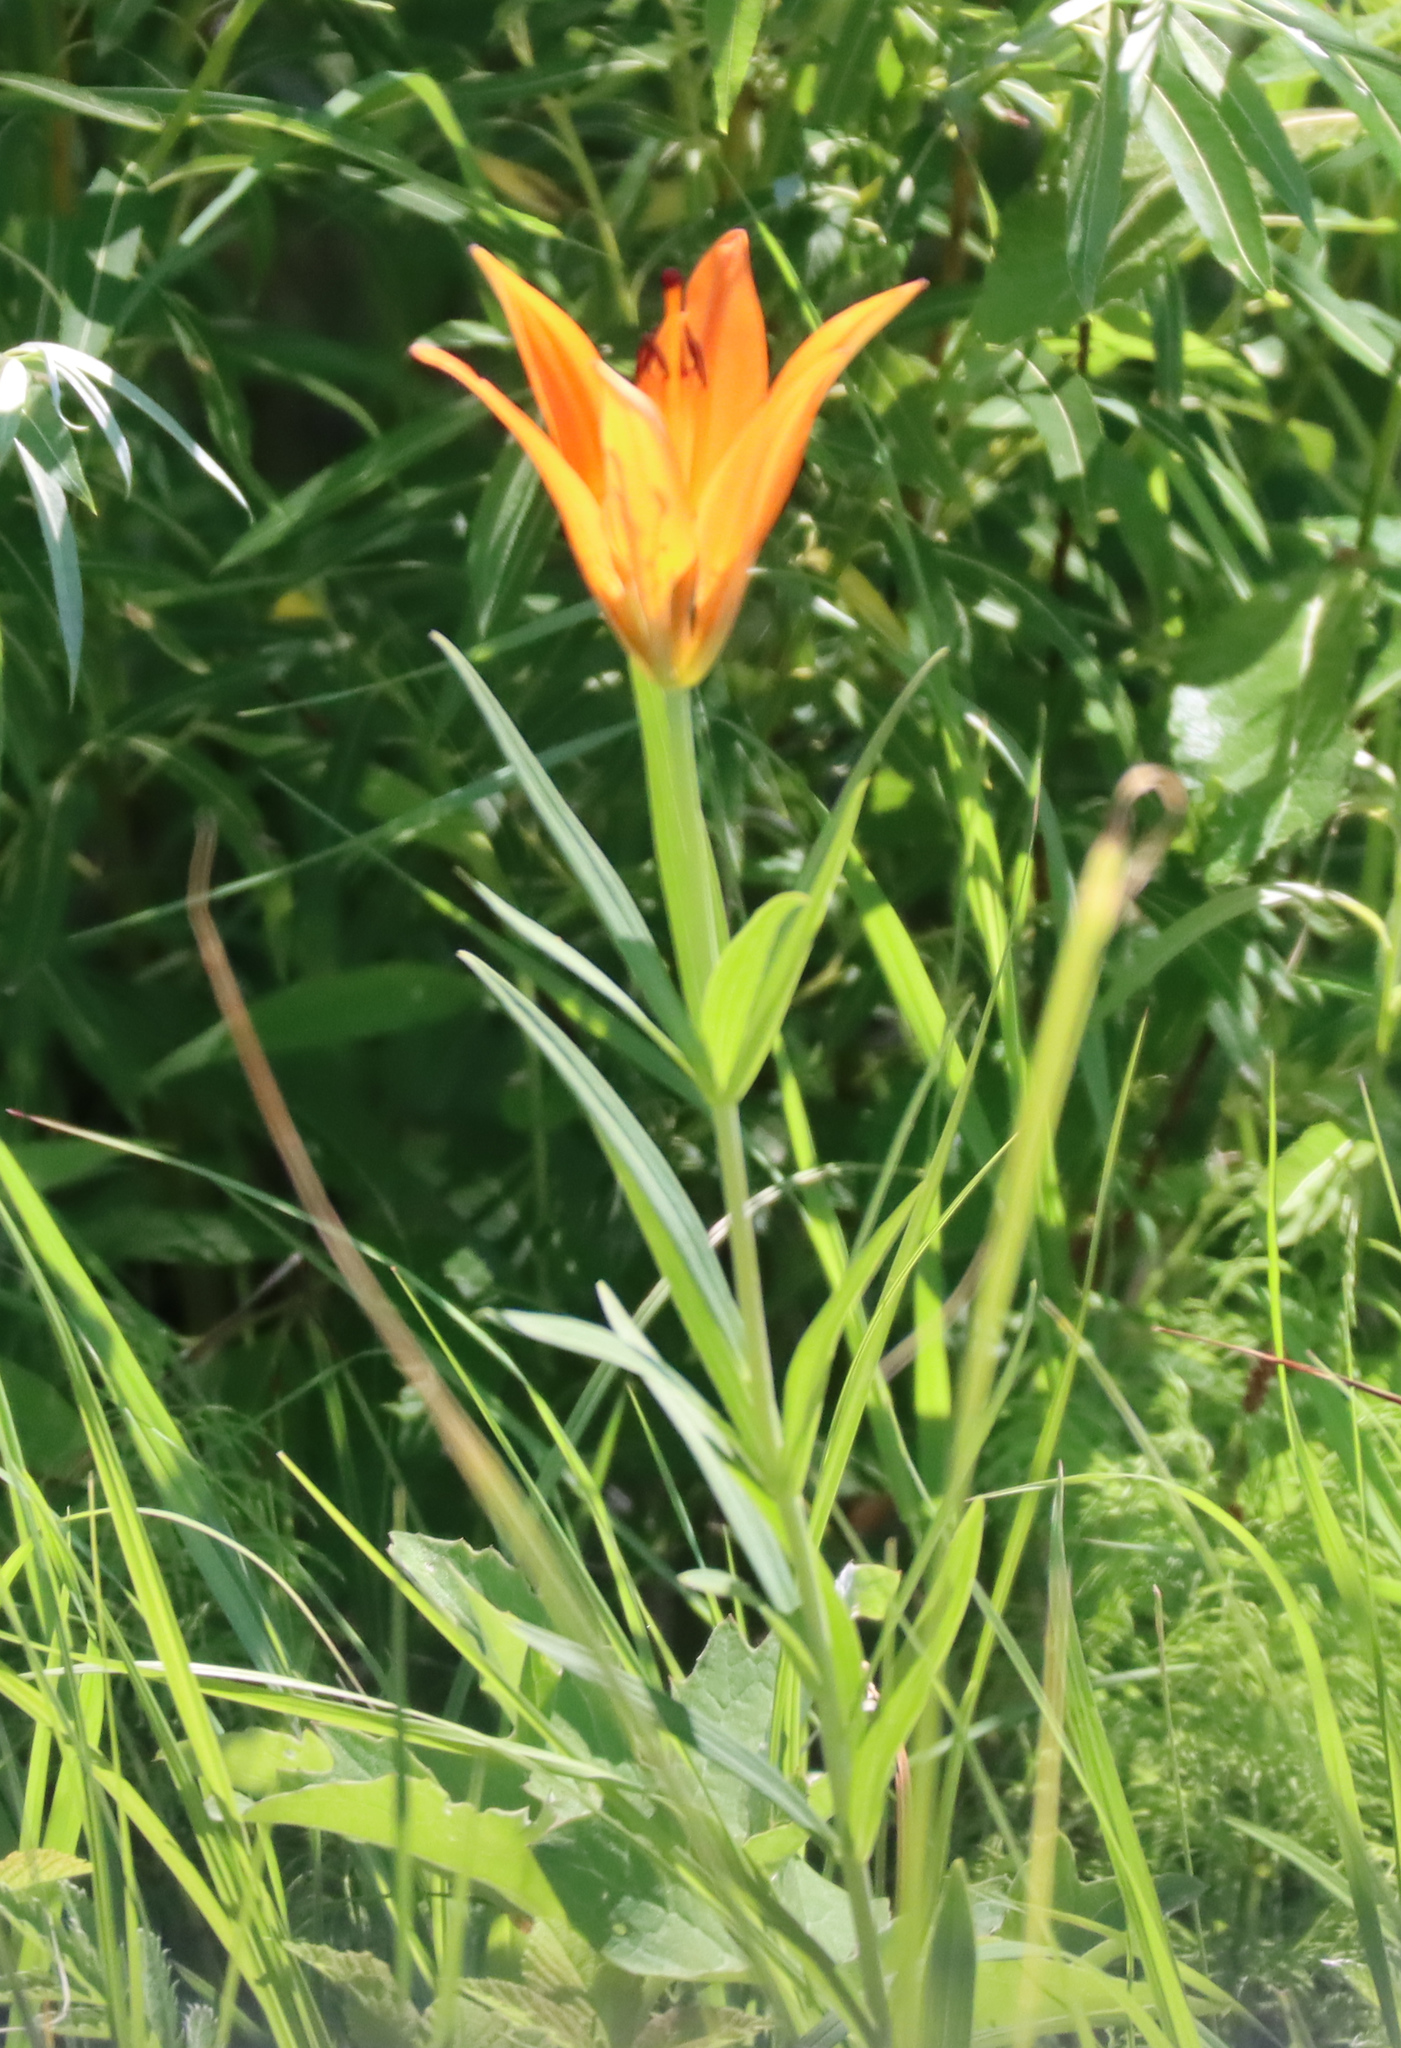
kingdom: Plantae
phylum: Tracheophyta
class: Liliopsida
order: Liliales
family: Liliaceae
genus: Lilium
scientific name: Lilium philadelphicum
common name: Red lily
